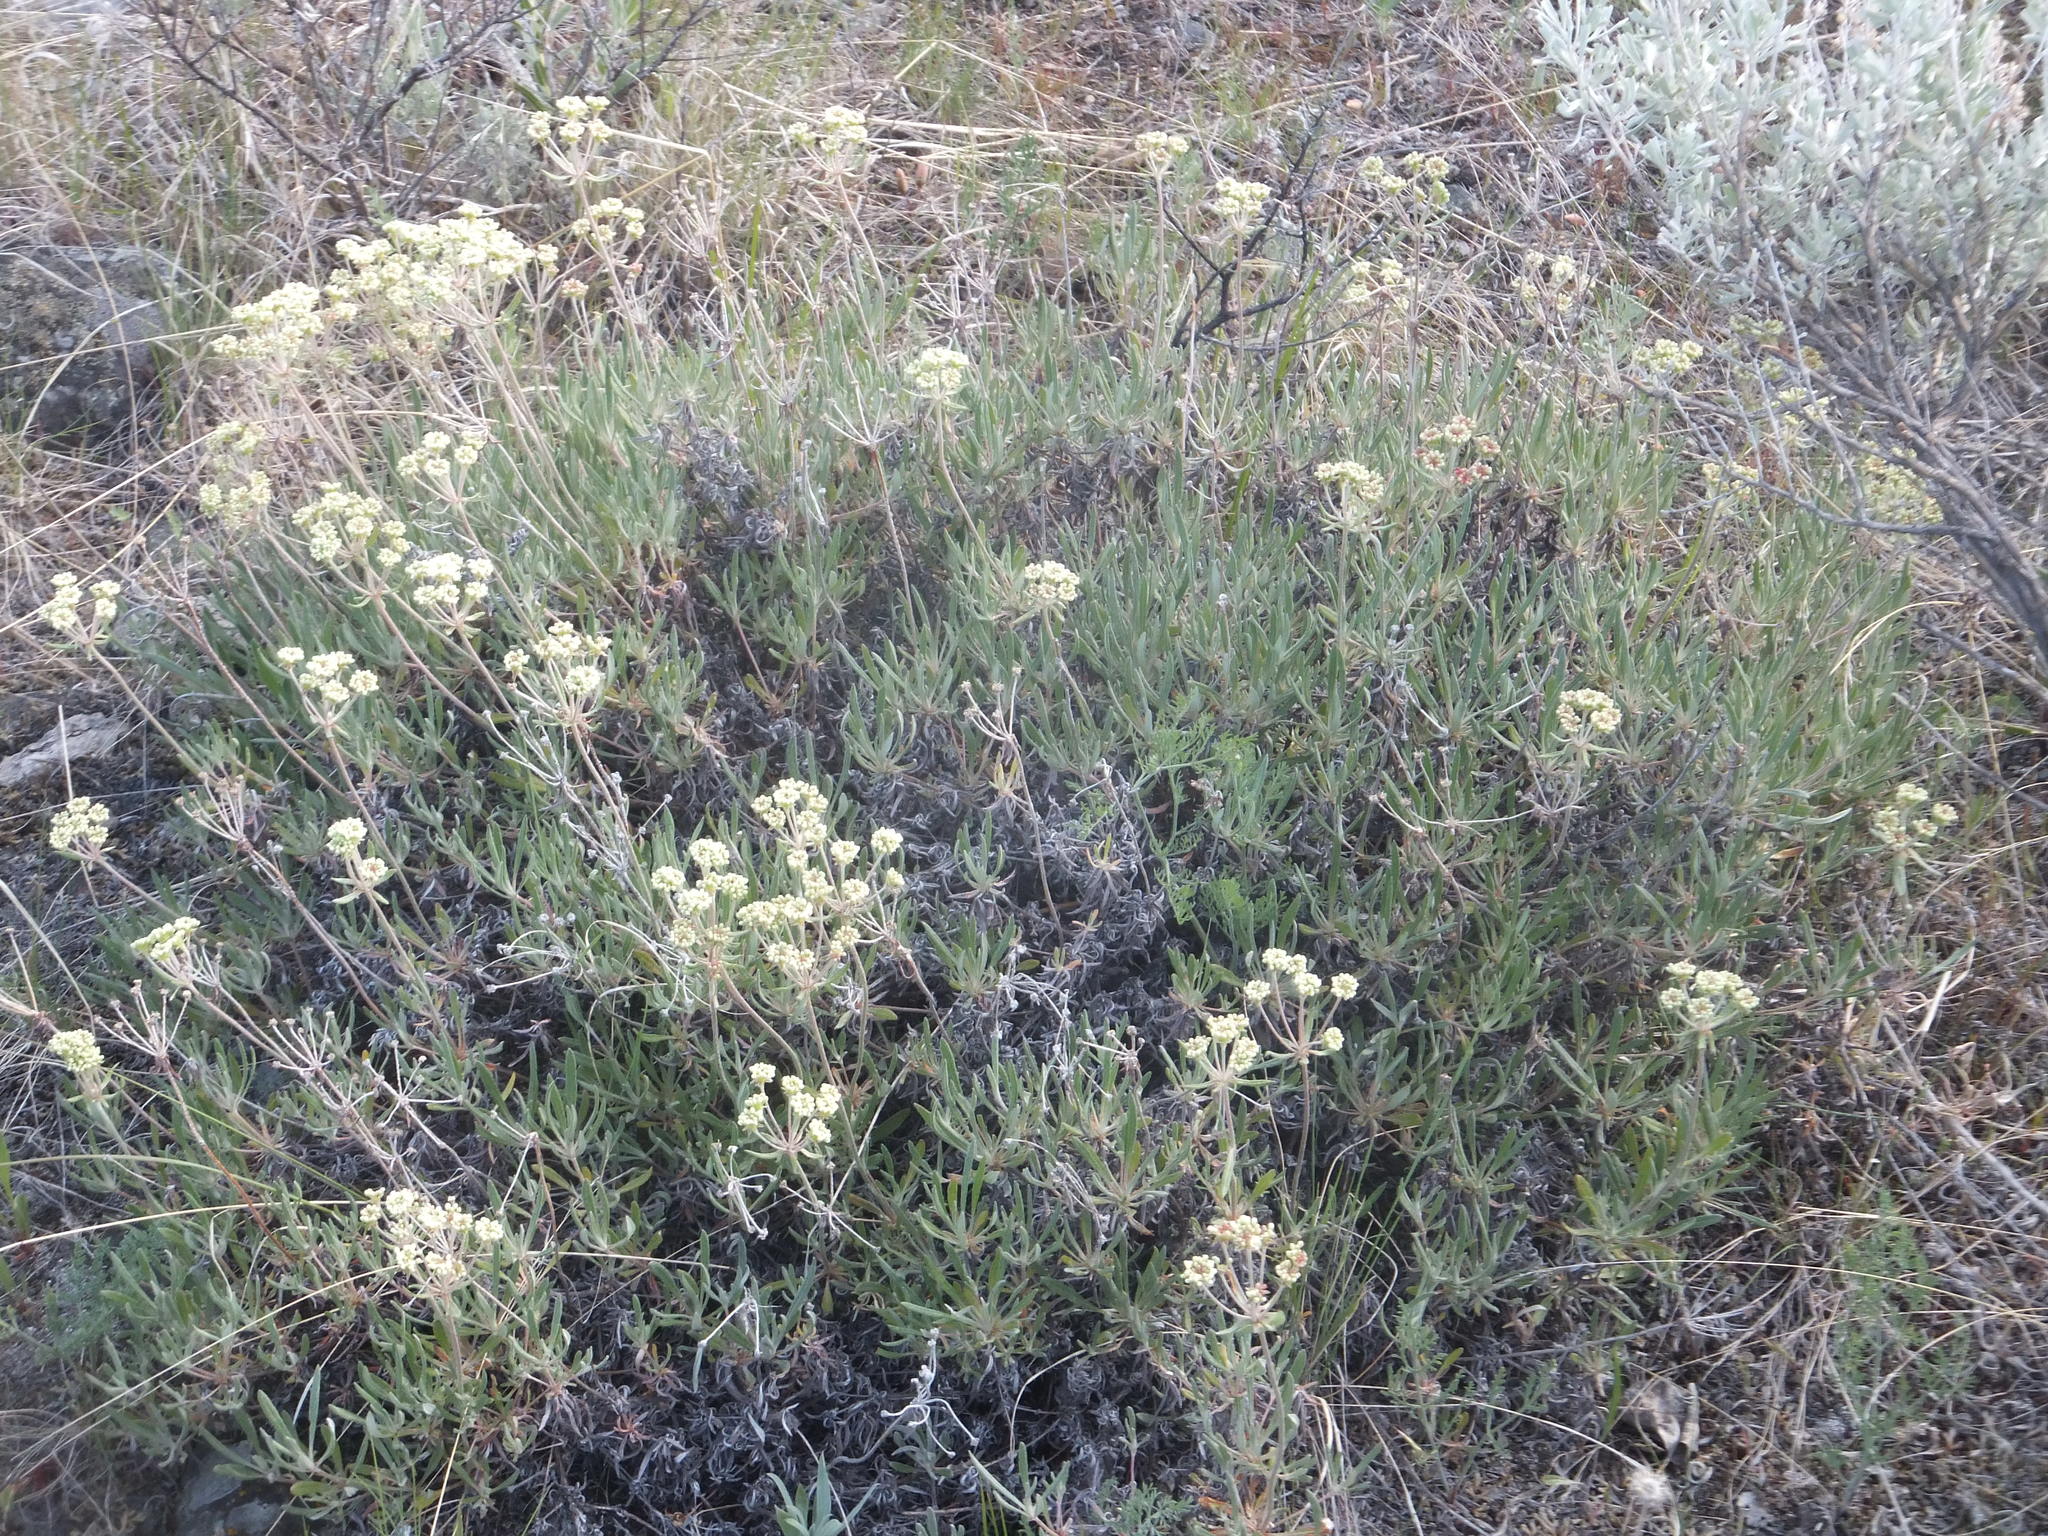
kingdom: Plantae
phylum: Tracheophyta
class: Magnoliopsida
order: Caryophyllales
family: Polygonaceae
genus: Eriogonum
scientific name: Eriogonum heracleoides
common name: Wyeth's buckwheat
